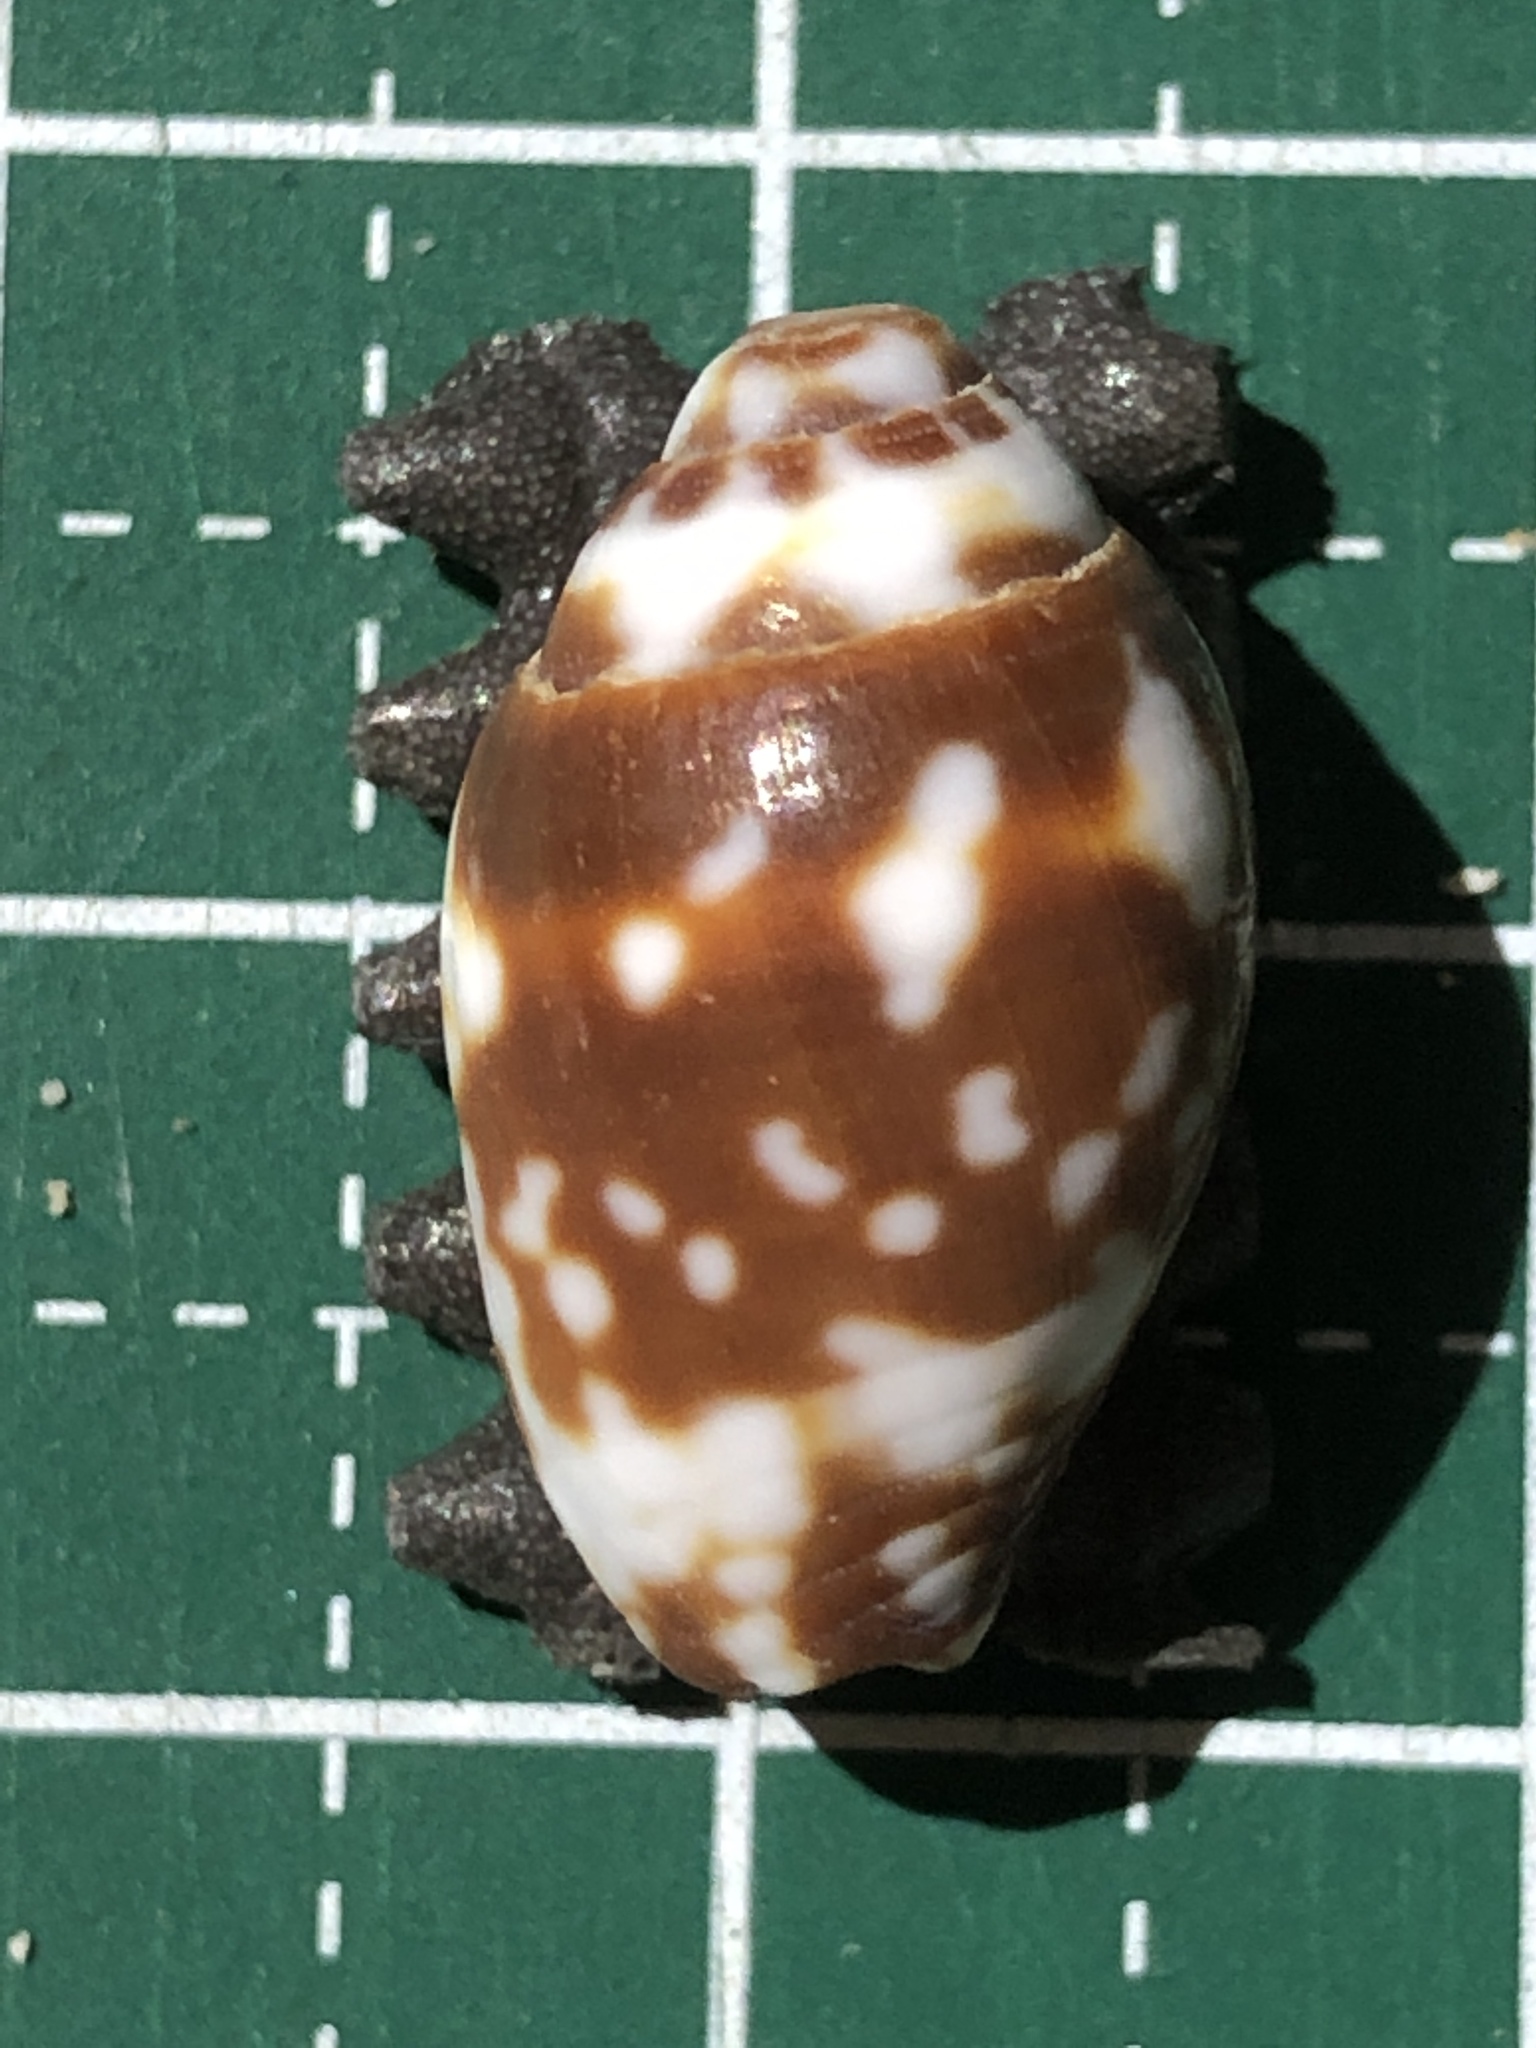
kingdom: Animalia
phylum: Mollusca
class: Gastropoda
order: Neogastropoda
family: Mitridae
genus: Strigatella
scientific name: Strigatella litterata
